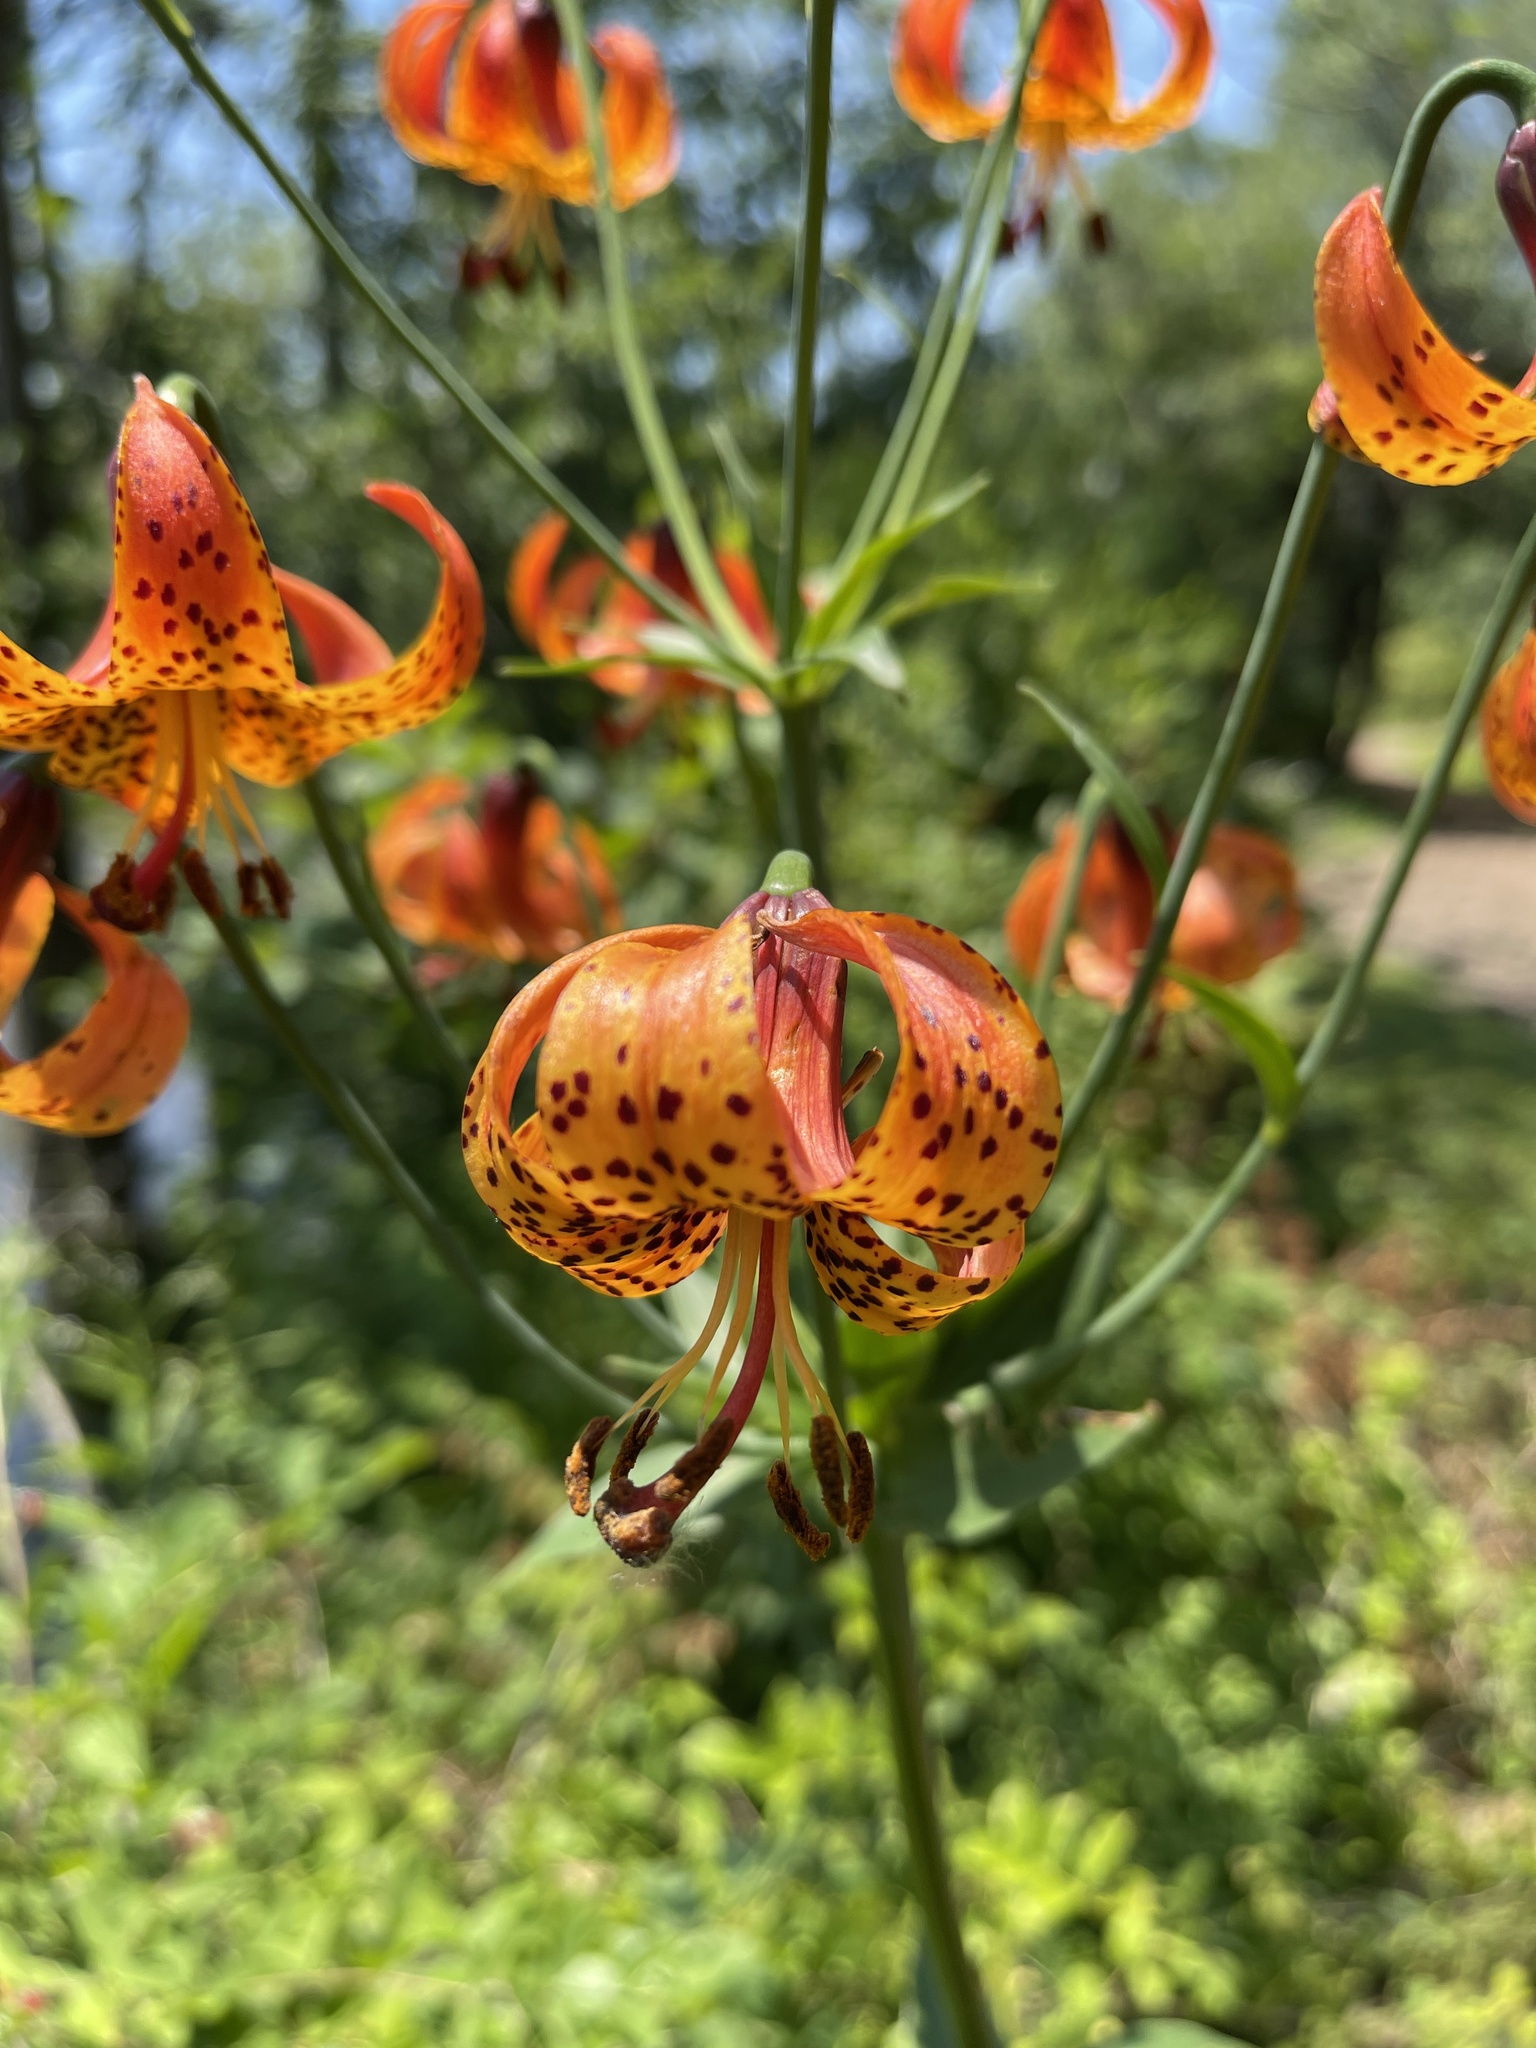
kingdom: Plantae
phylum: Tracheophyta
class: Liliopsida
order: Liliales
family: Liliaceae
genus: Lilium
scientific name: Lilium michiganense
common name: Michigan lily
